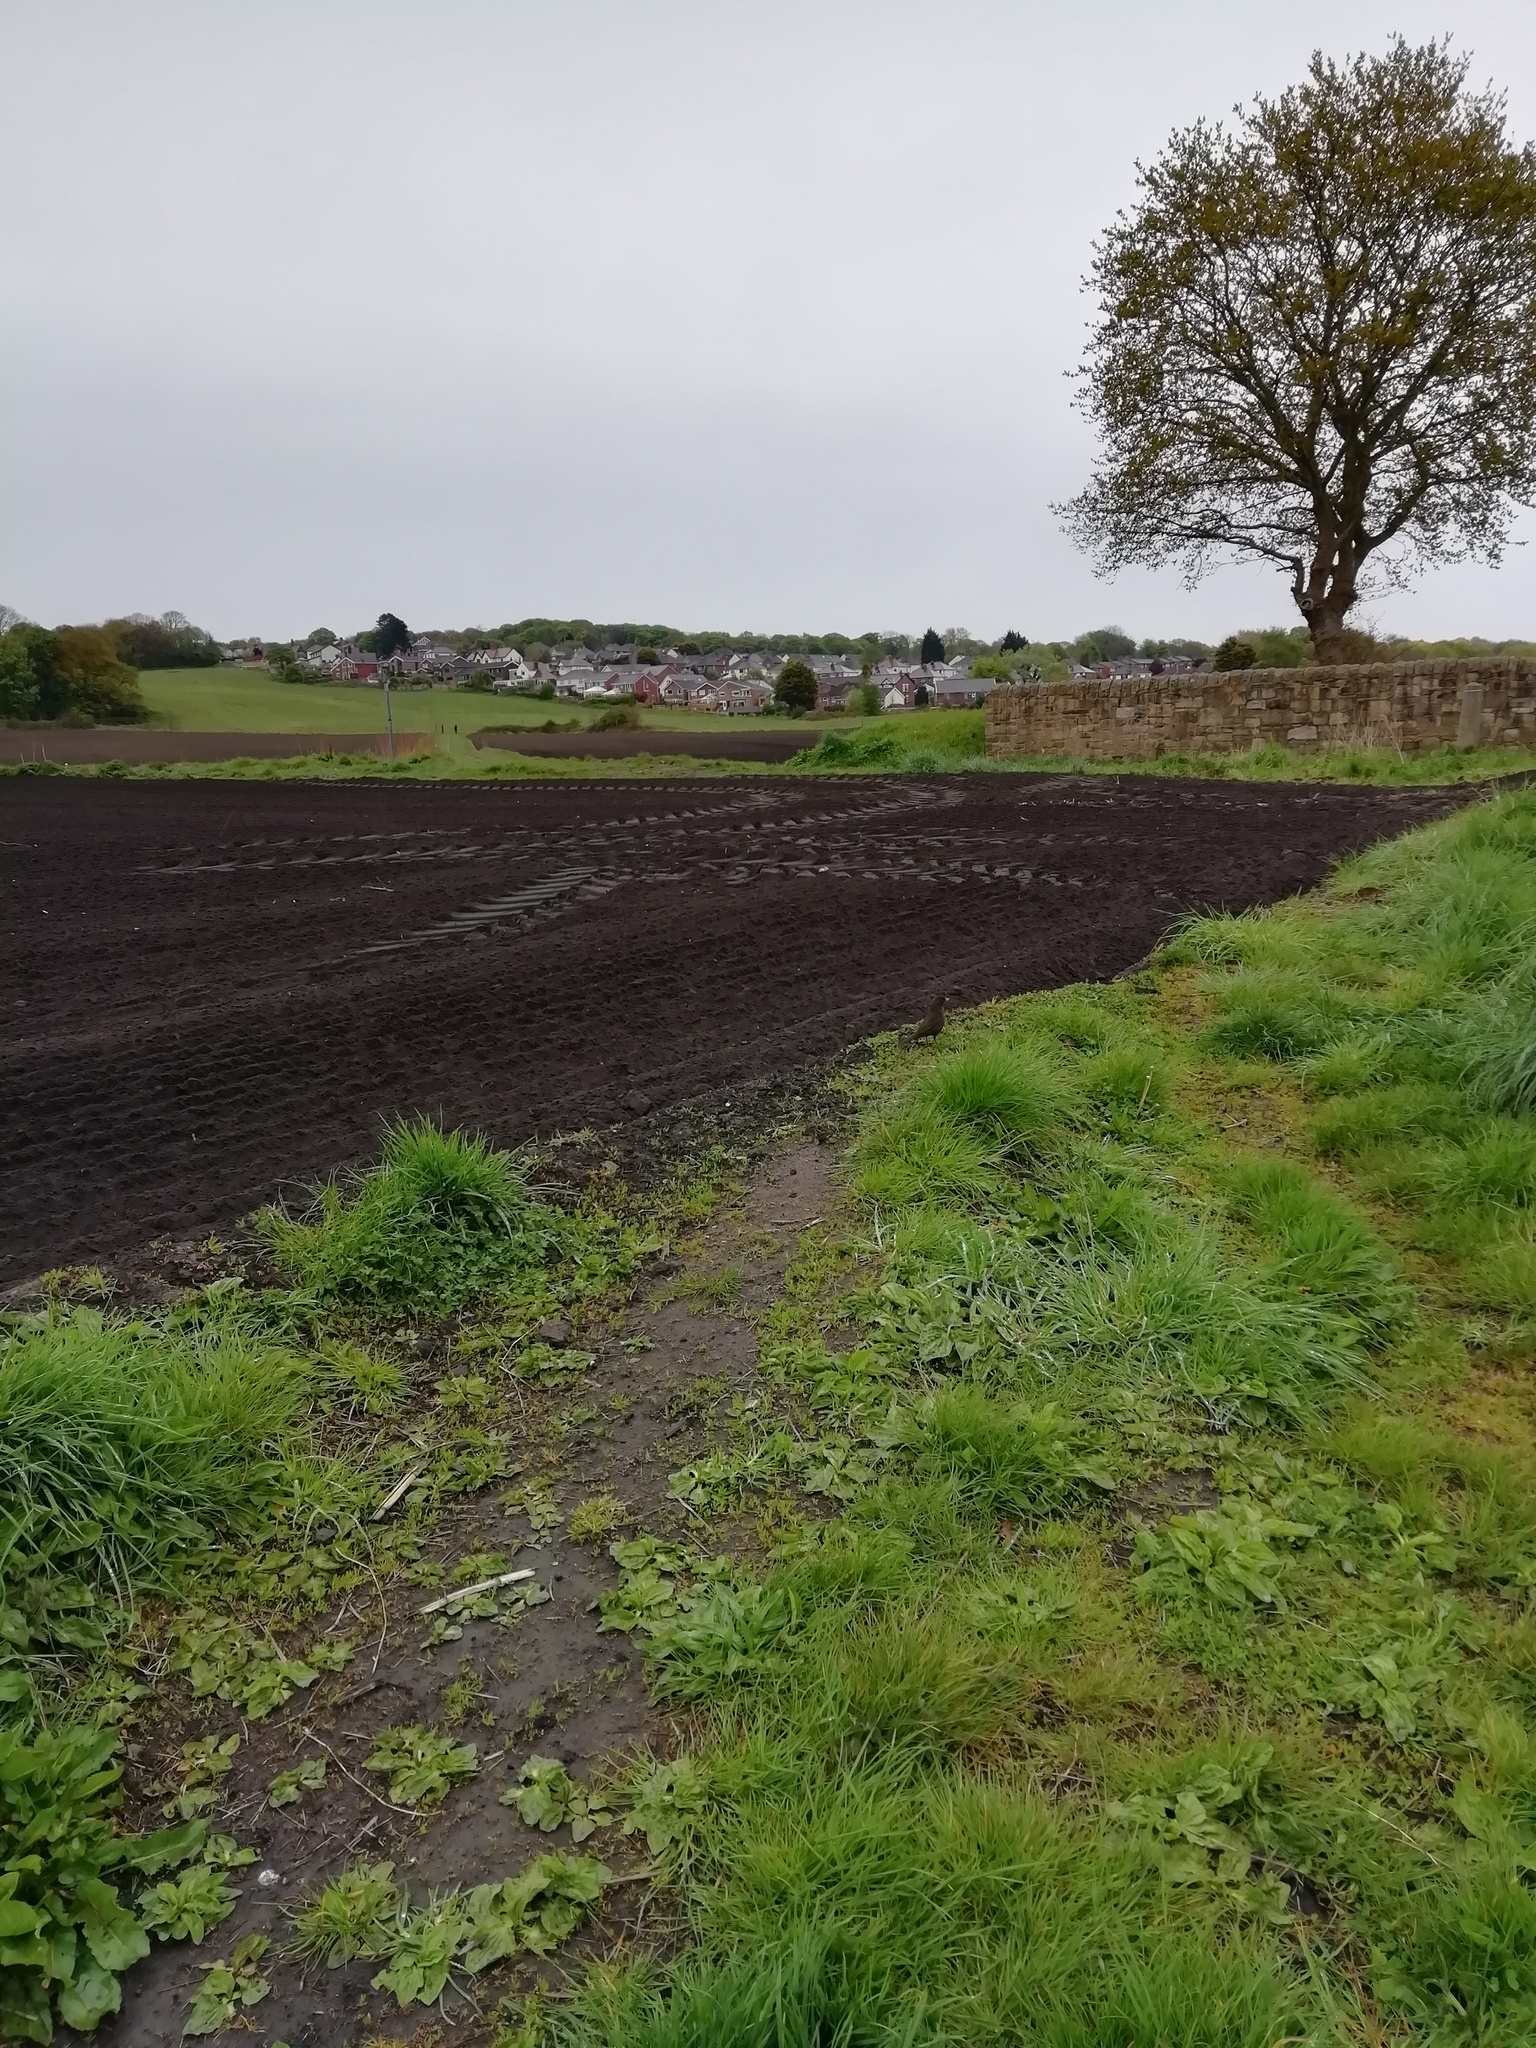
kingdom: Animalia
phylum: Chordata
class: Aves
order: Passeriformes
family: Turdidae
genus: Turdus
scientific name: Turdus merula
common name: Common blackbird
